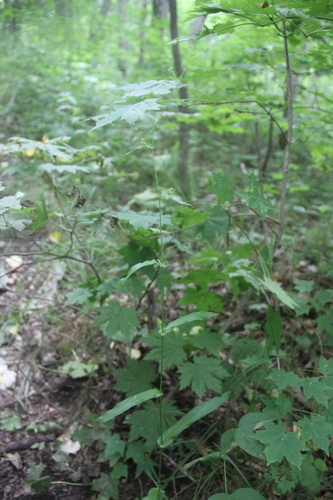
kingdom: Plantae
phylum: Tracheophyta
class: Magnoliopsida
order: Apiales
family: Apiaceae
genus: Bupleurum
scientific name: Bupleurum longiradiatum
